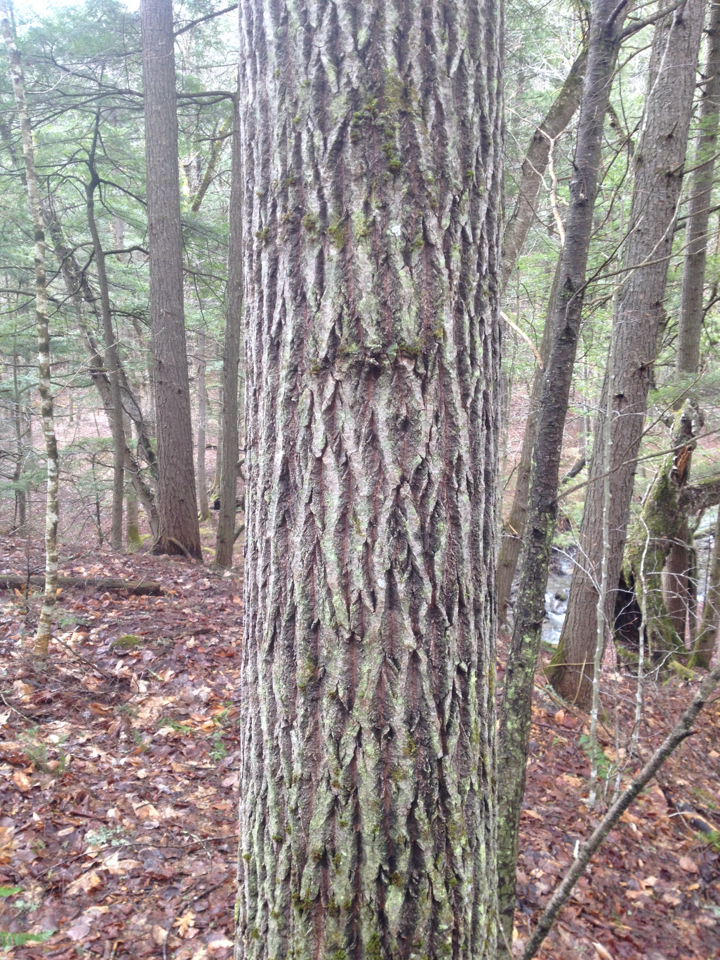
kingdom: Plantae
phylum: Tracheophyta
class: Magnoliopsida
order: Lamiales
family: Oleaceae
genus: Fraxinus
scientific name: Fraxinus americana
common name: White ash
